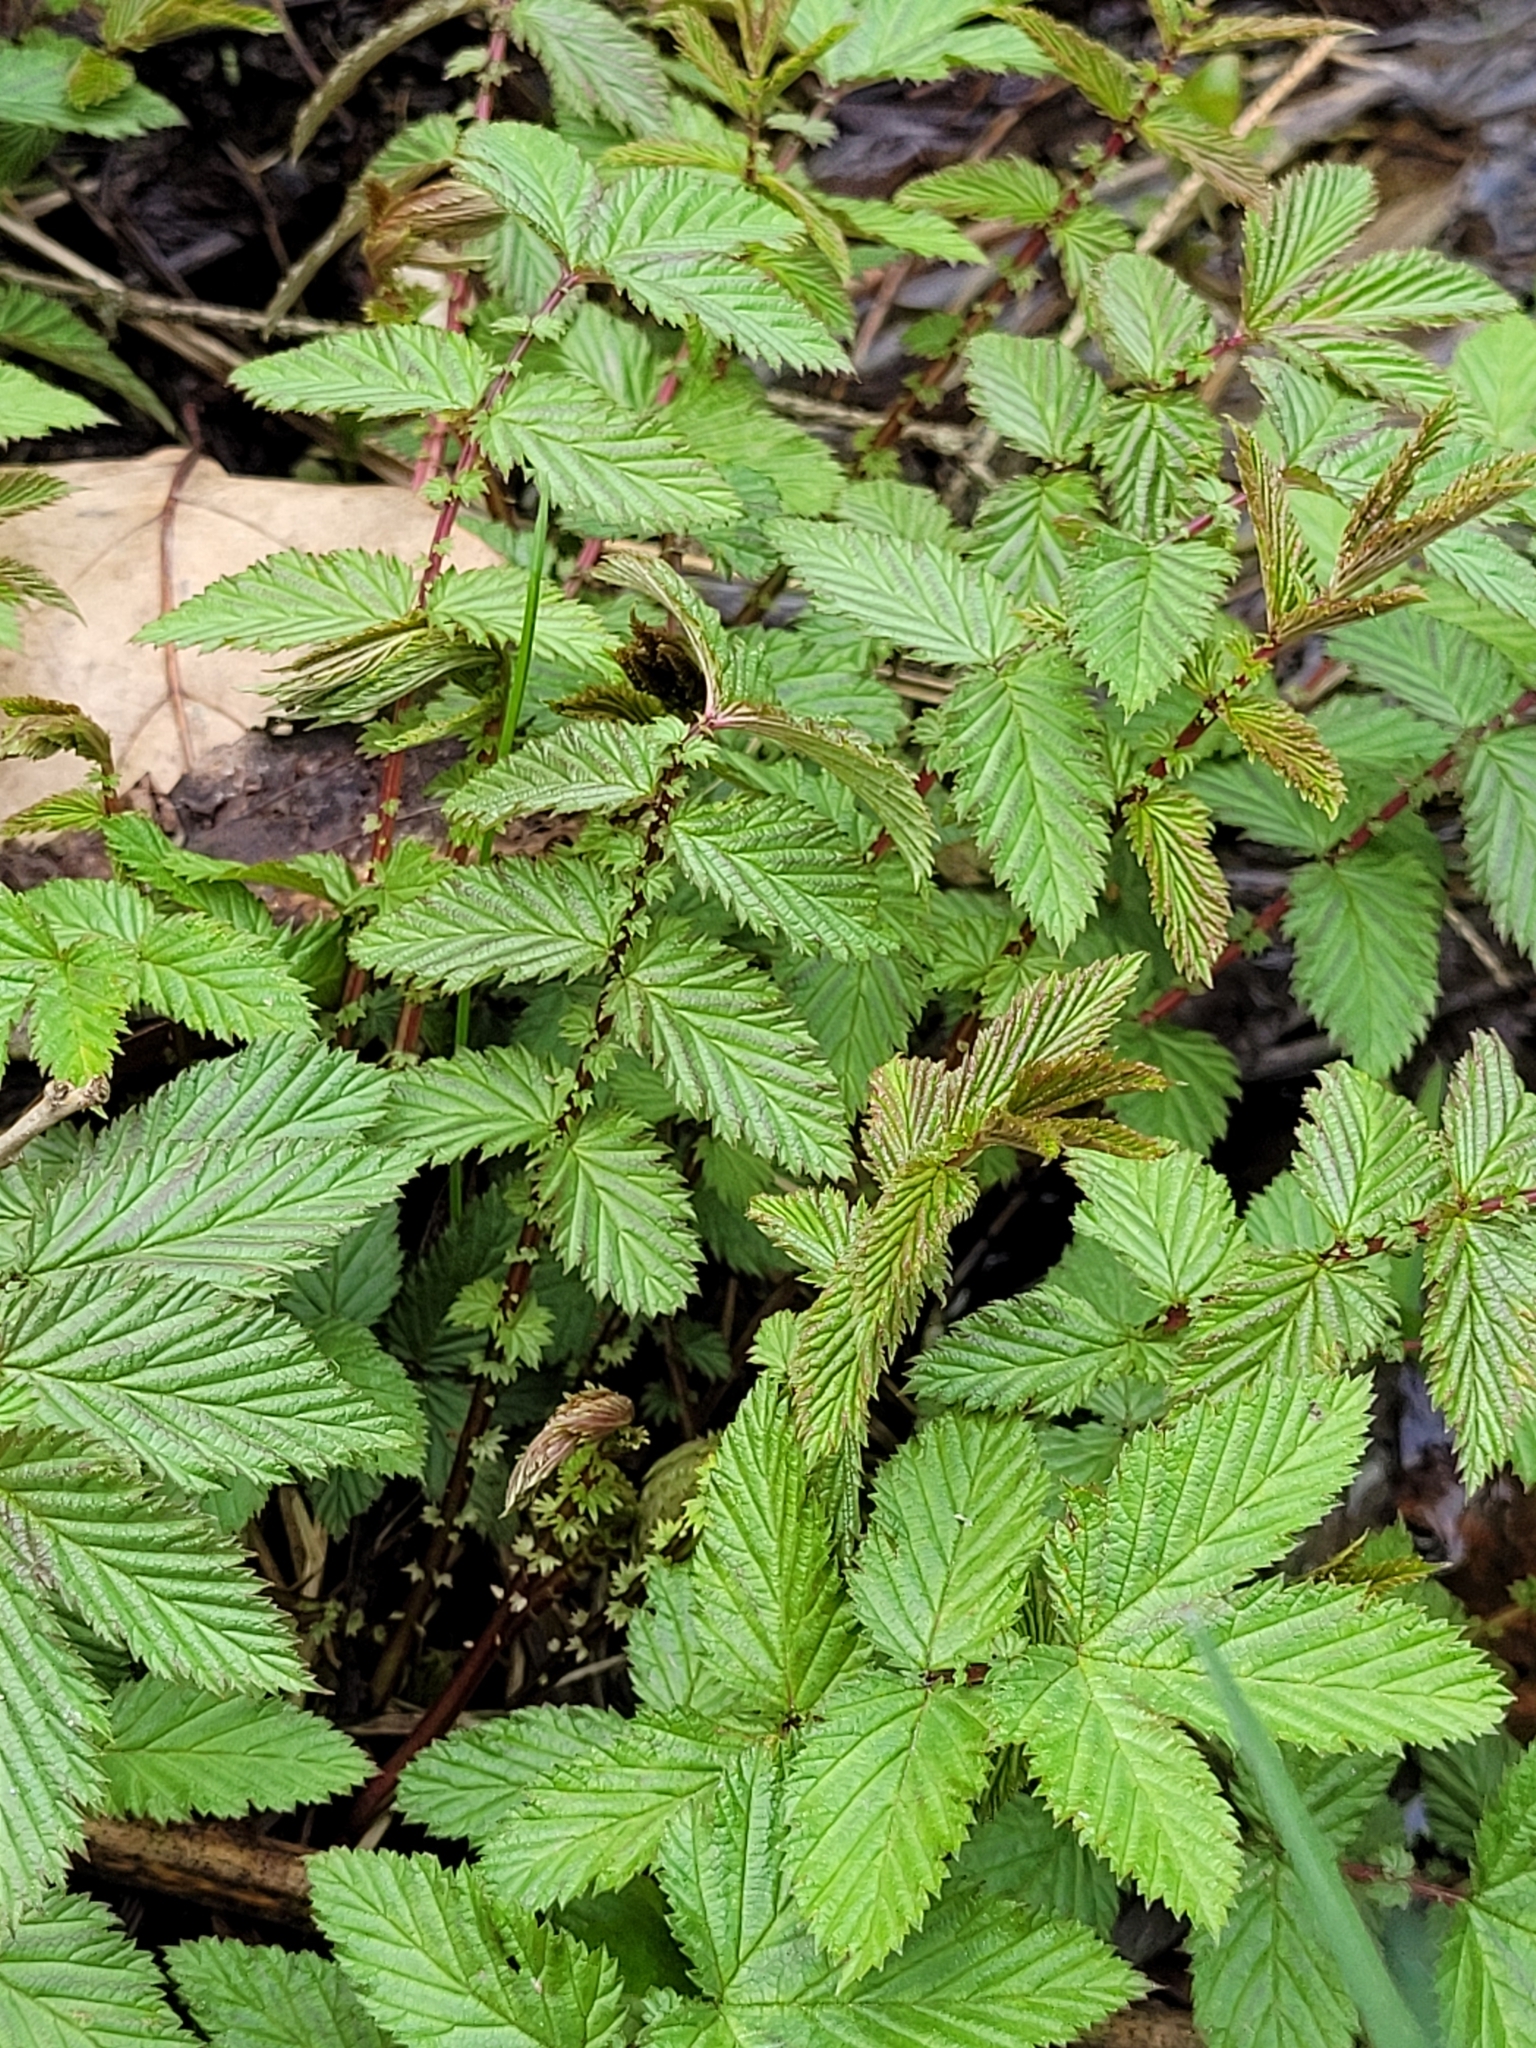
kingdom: Plantae
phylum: Tracheophyta
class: Magnoliopsida
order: Rosales
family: Rosaceae
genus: Filipendula
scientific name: Filipendula ulmaria
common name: Meadowsweet
